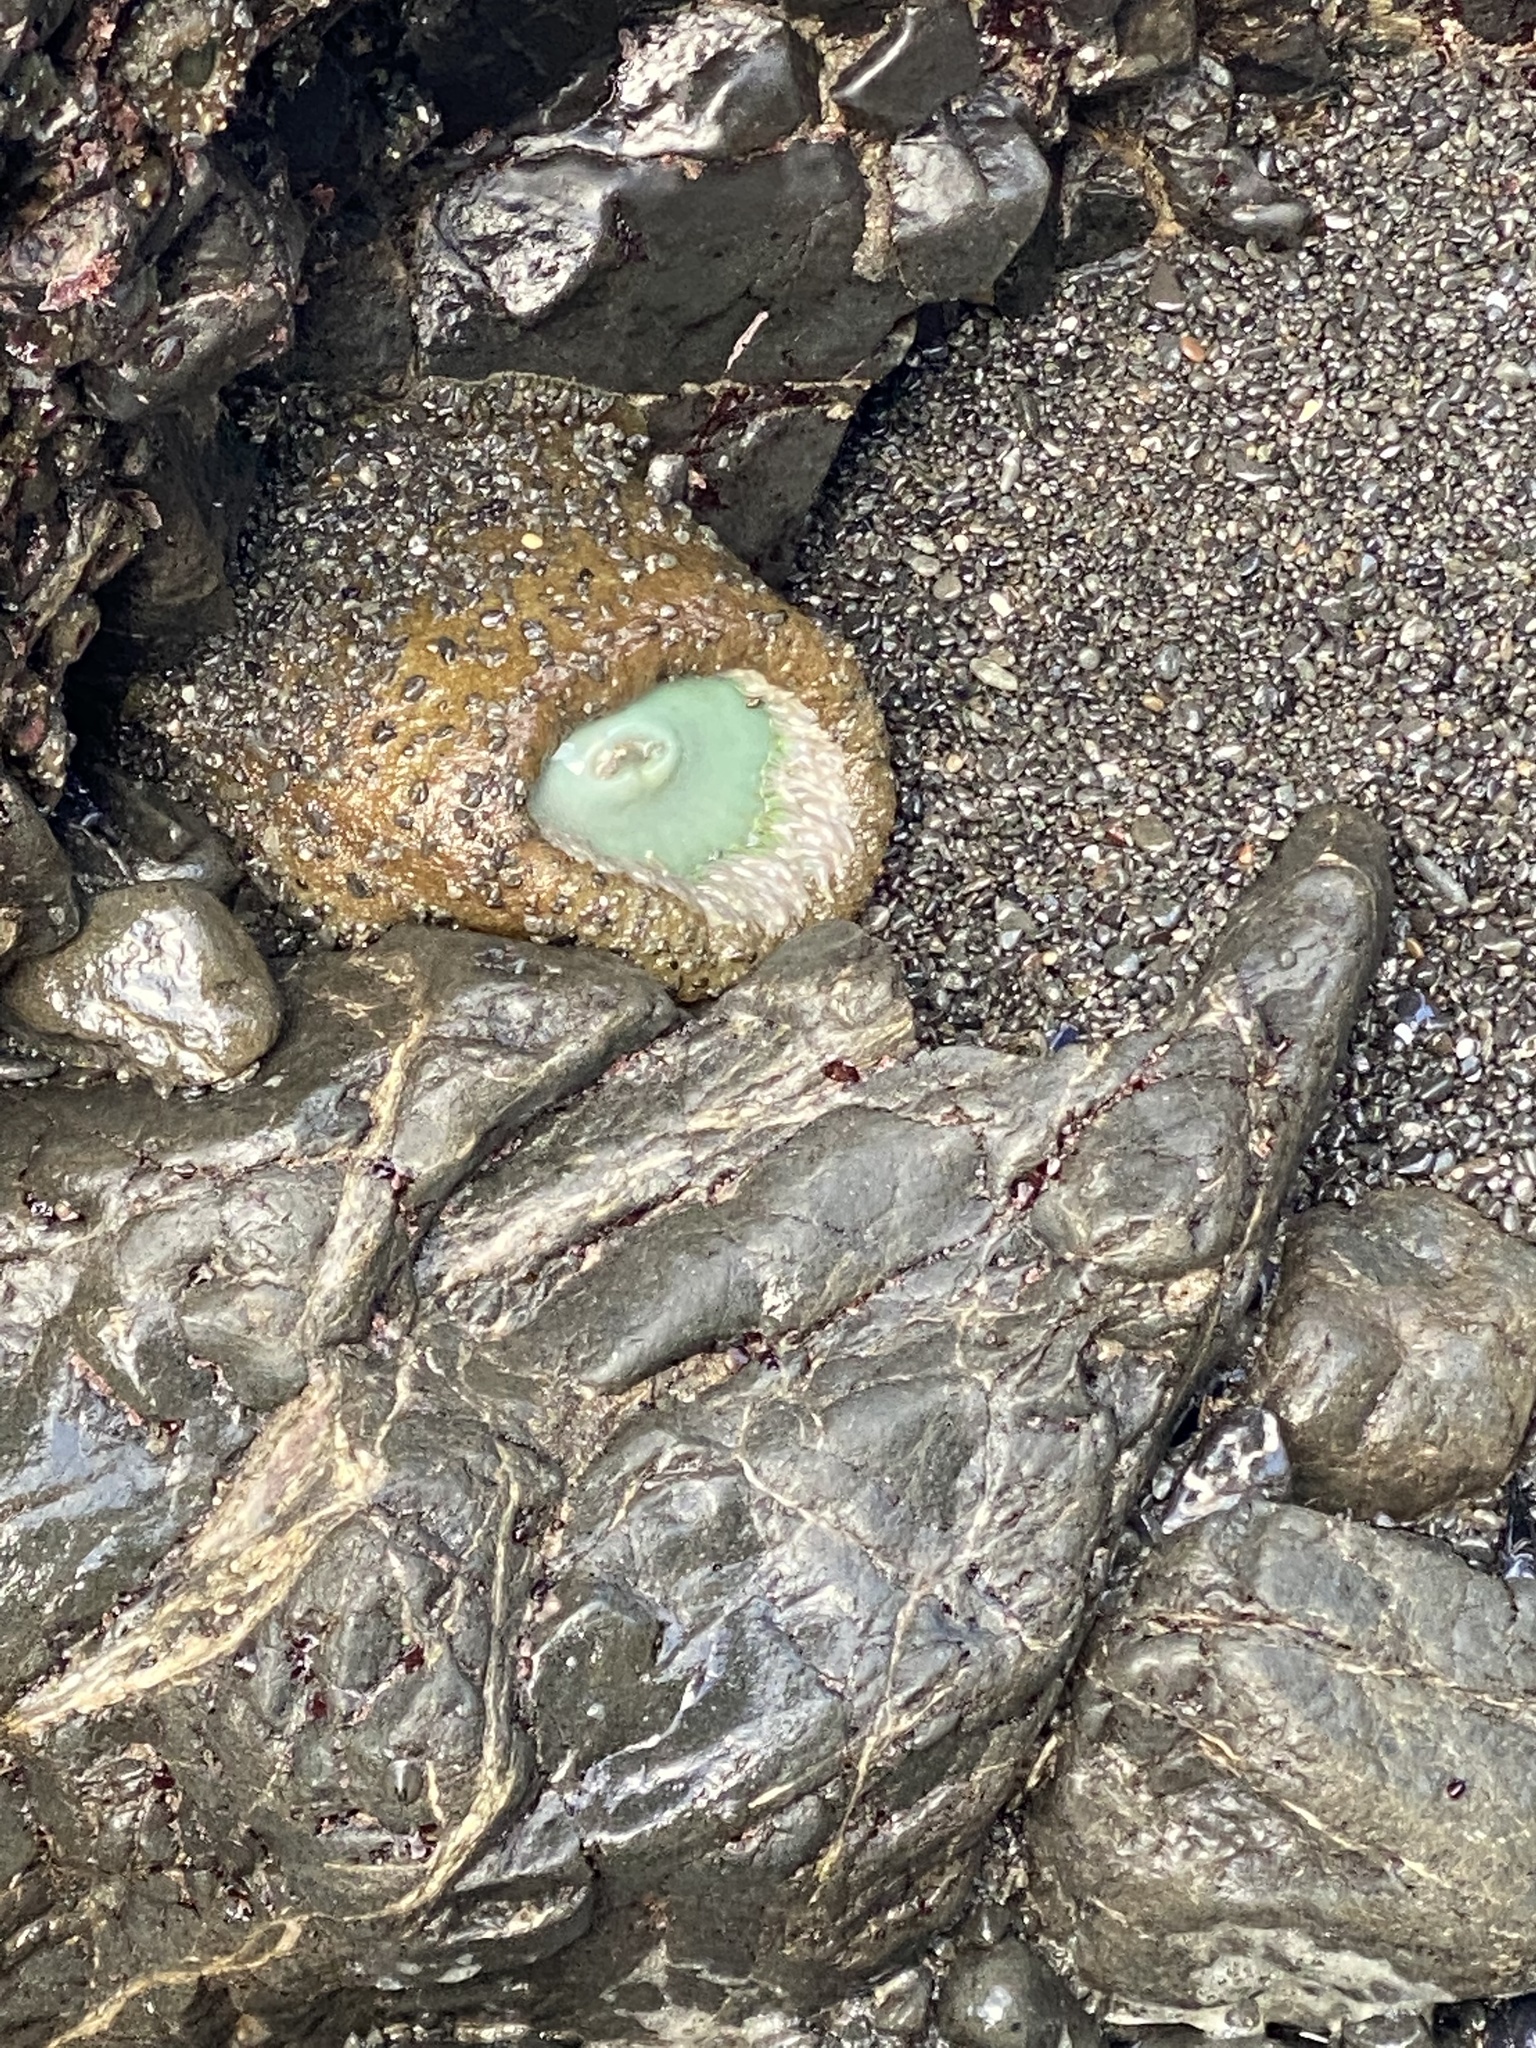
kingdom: Animalia
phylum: Cnidaria
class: Anthozoa
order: Actiniaria
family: Actiniidae
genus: Anthopleura
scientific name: Anthopleura xanthogrammica
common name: Giant green anemone
